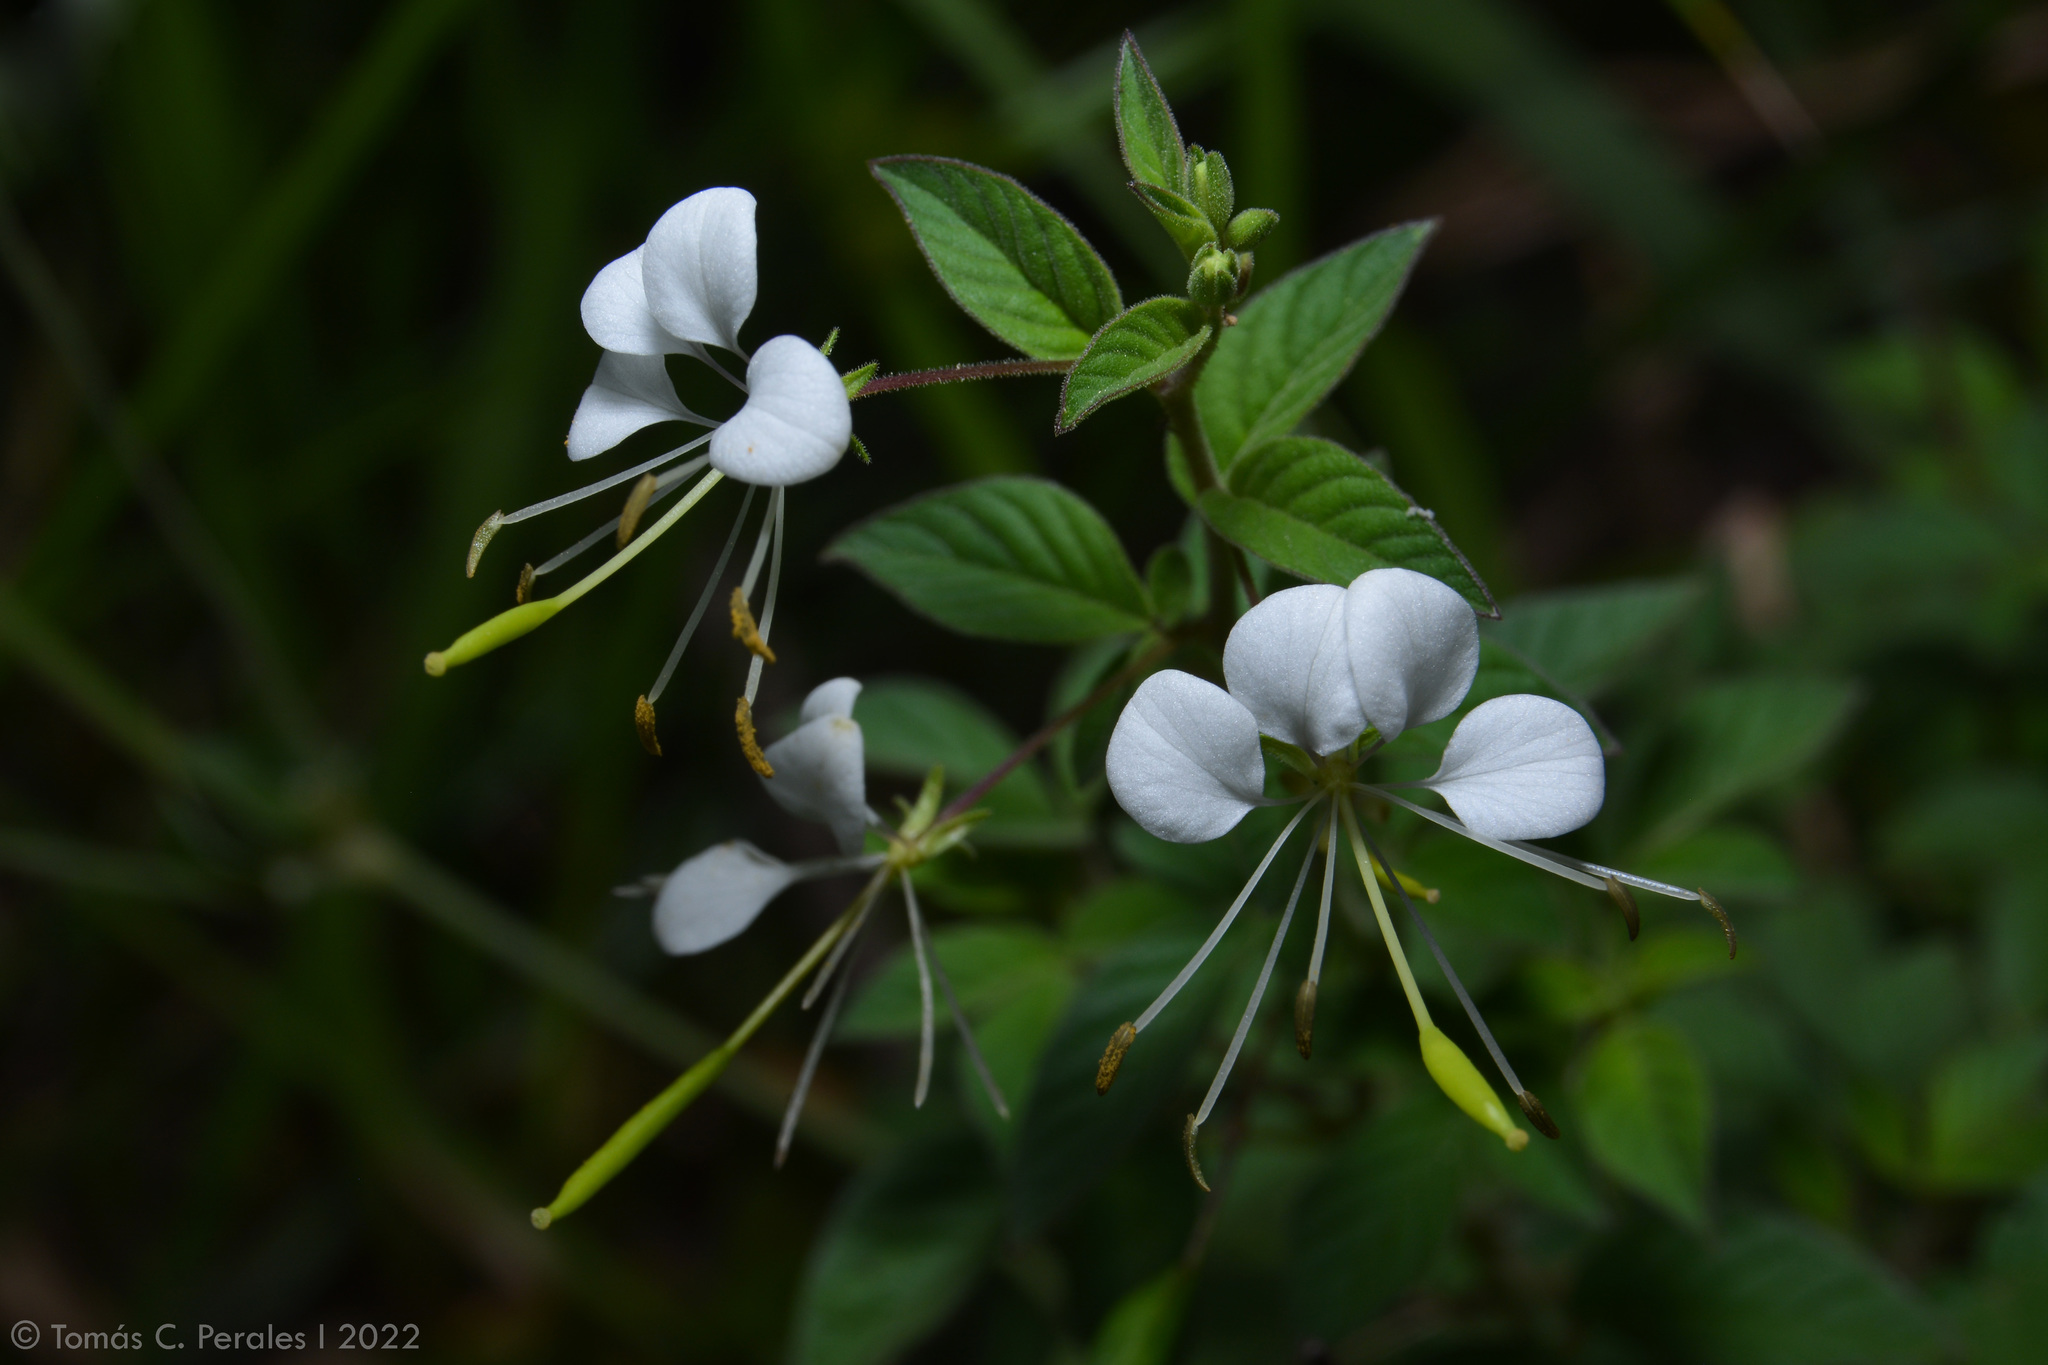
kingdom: Plantae
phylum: Tracheophyta
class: Magnoliopsida
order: Brassicales
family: Cleomaceae
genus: Tarenaya
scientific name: Tarenaya cordobensis
